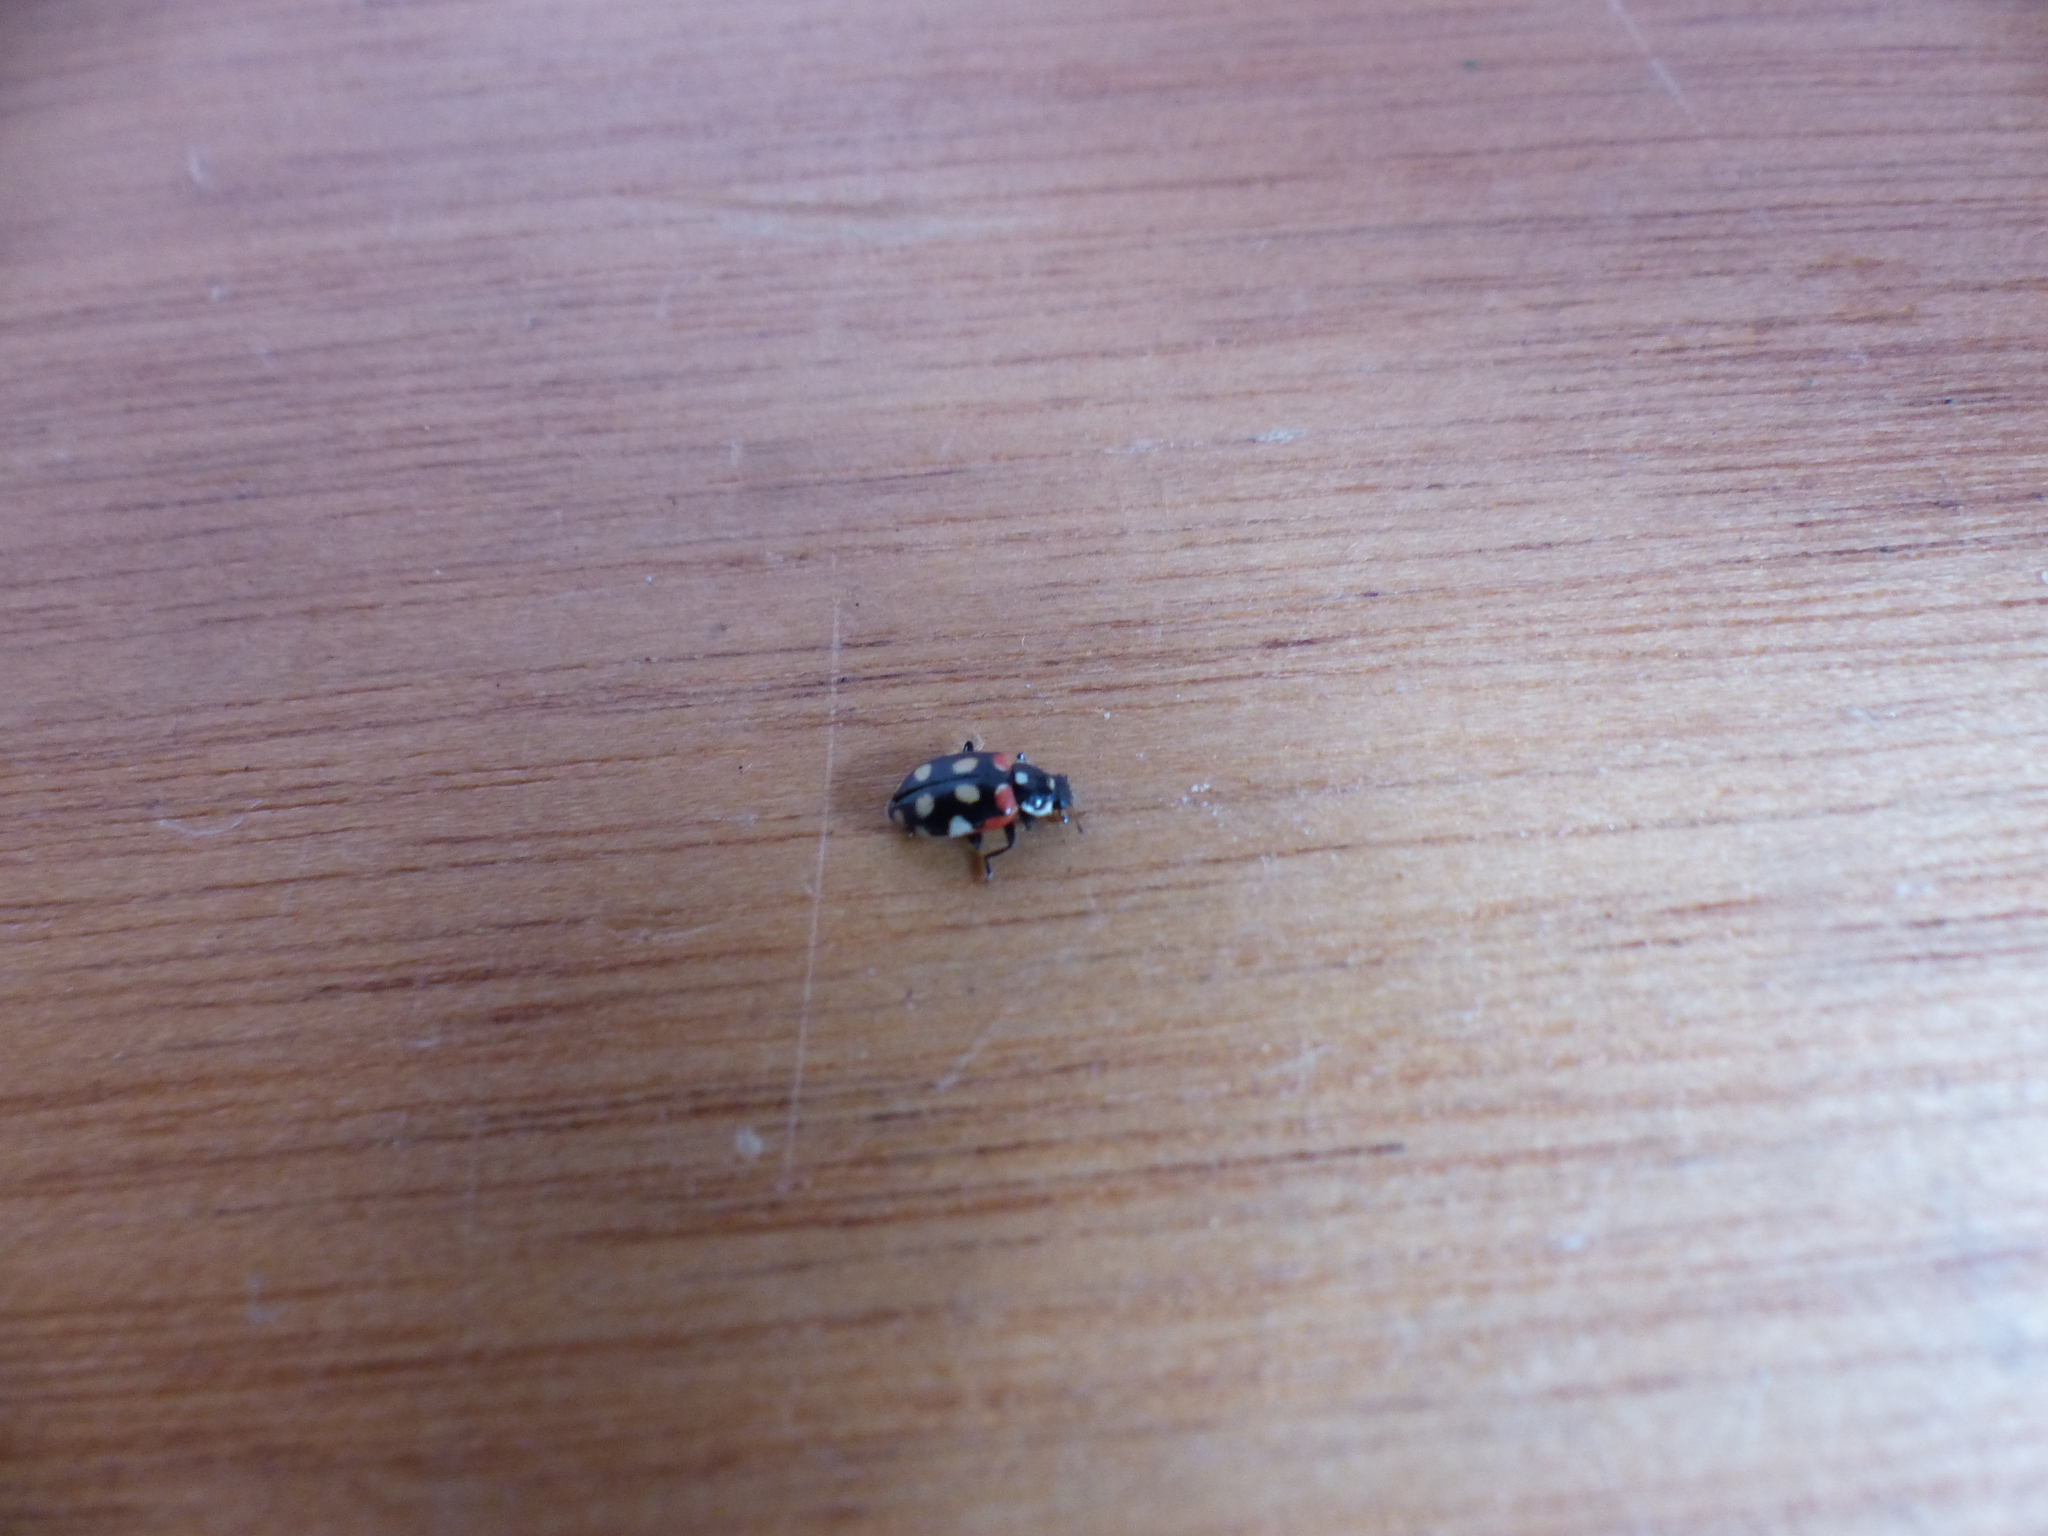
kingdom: Animalia
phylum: Arthropoda
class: Insecta
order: Coleoptera
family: Coccinellidae
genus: Eriopis
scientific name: Eriopis punicola
